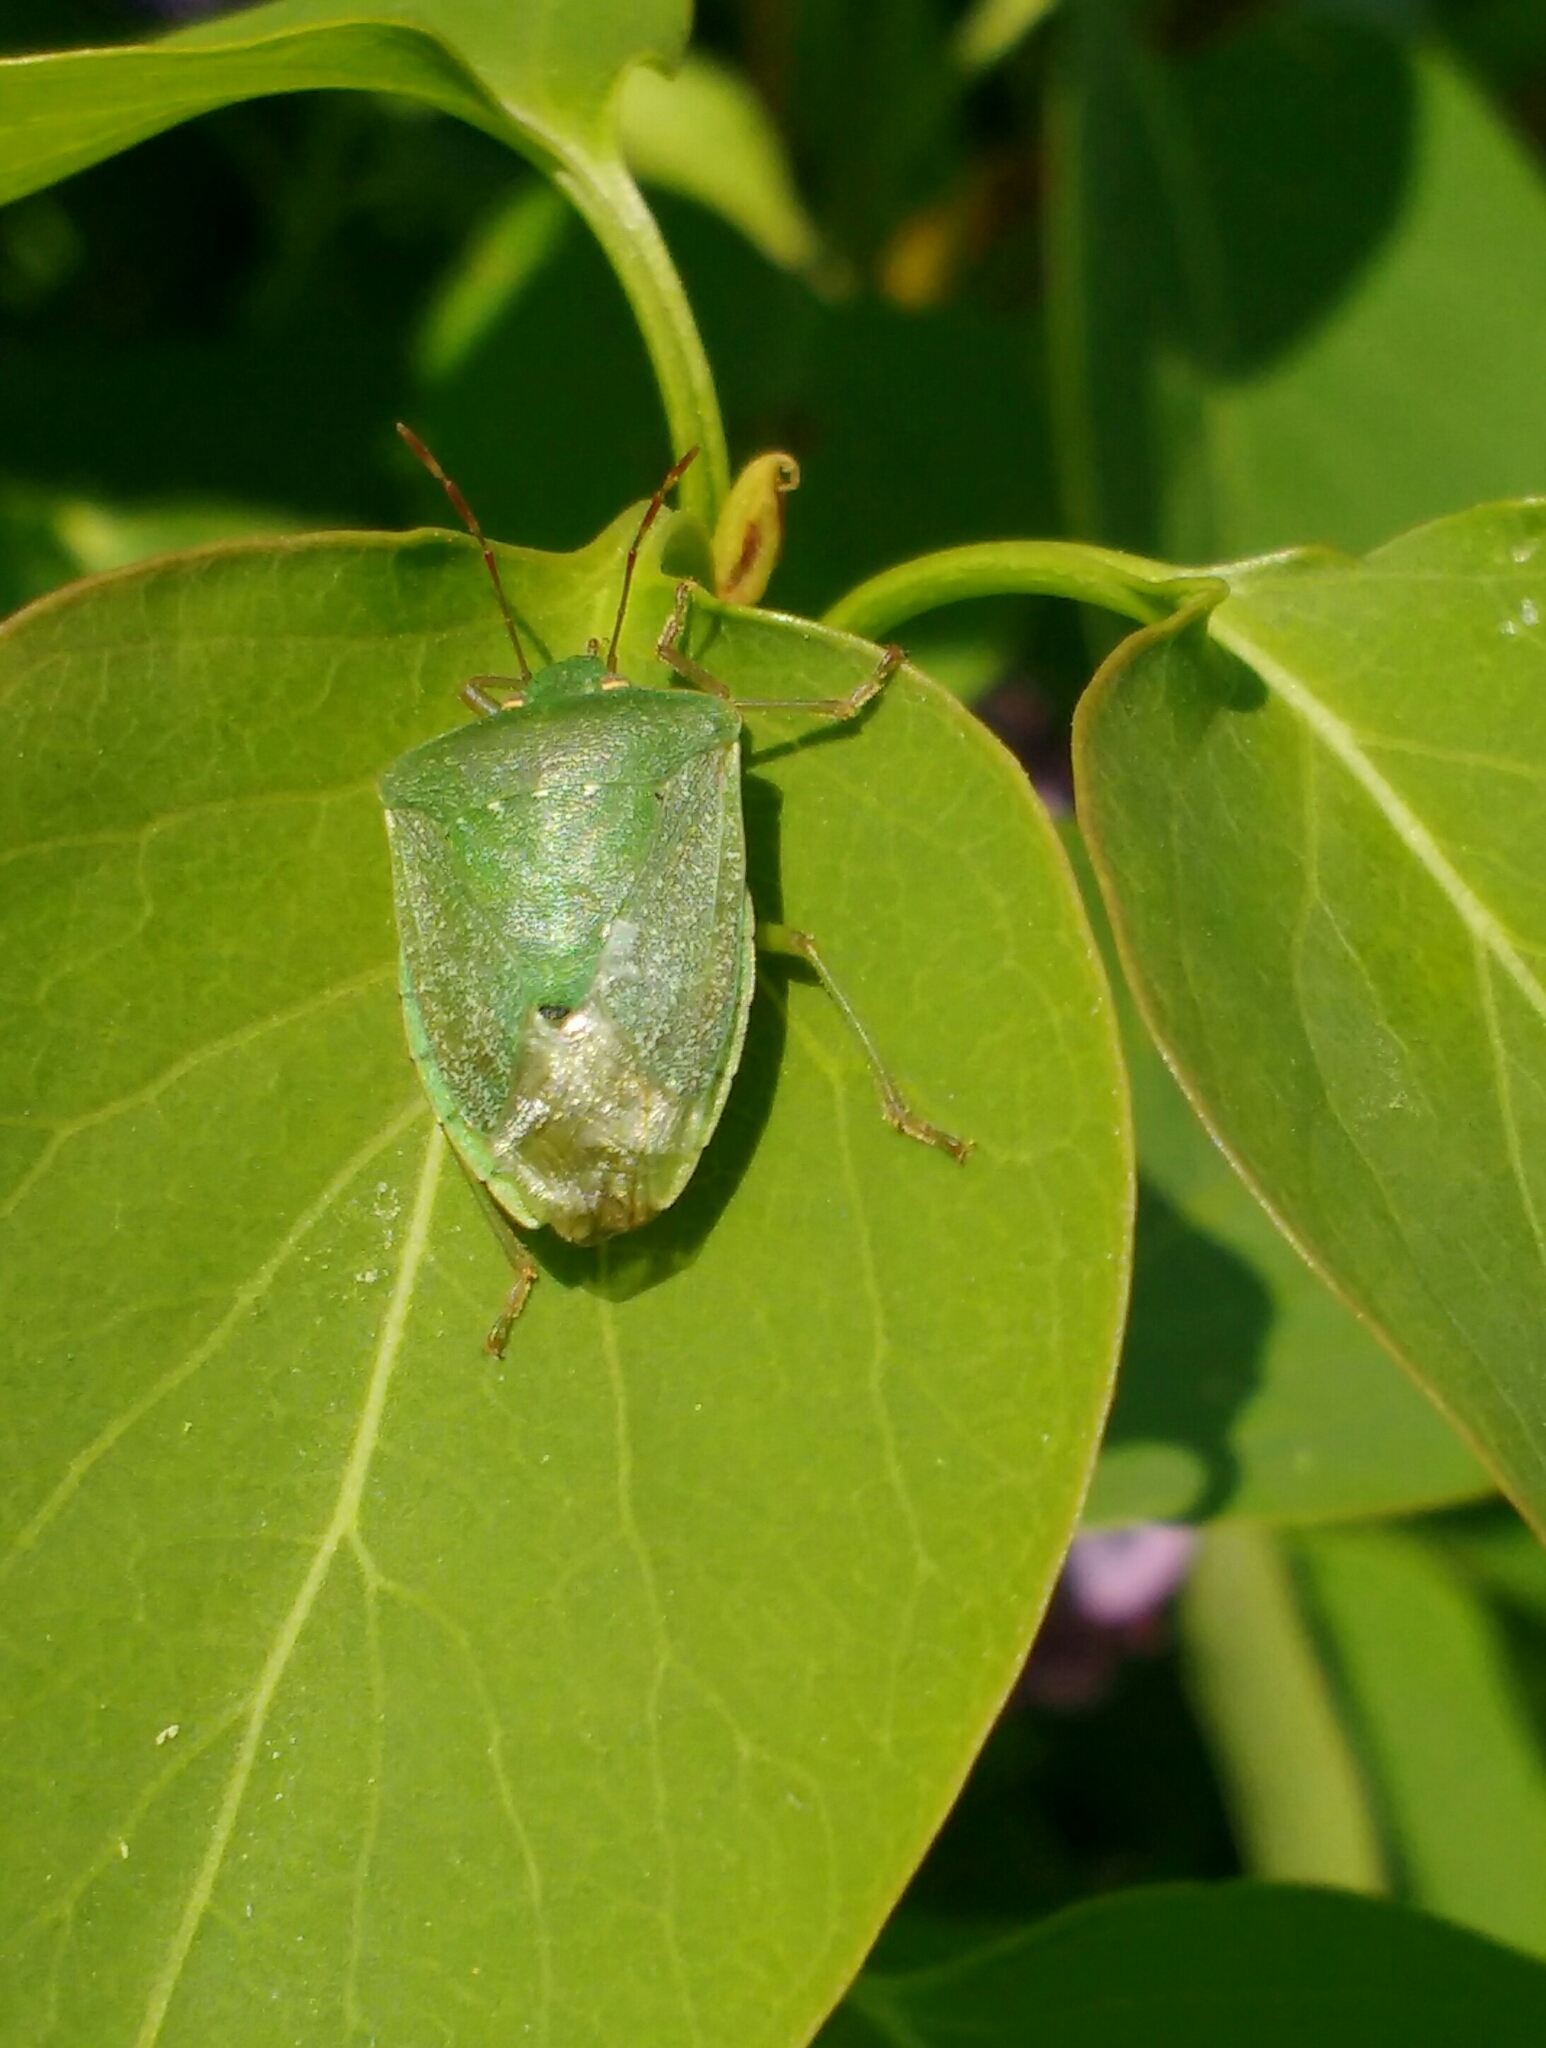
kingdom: Animalia
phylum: Arthropoda
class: Insecta
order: Hemiptera
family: Pentatomidae
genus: Nezara
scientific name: Nezara viridula
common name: Southern green stink bug
